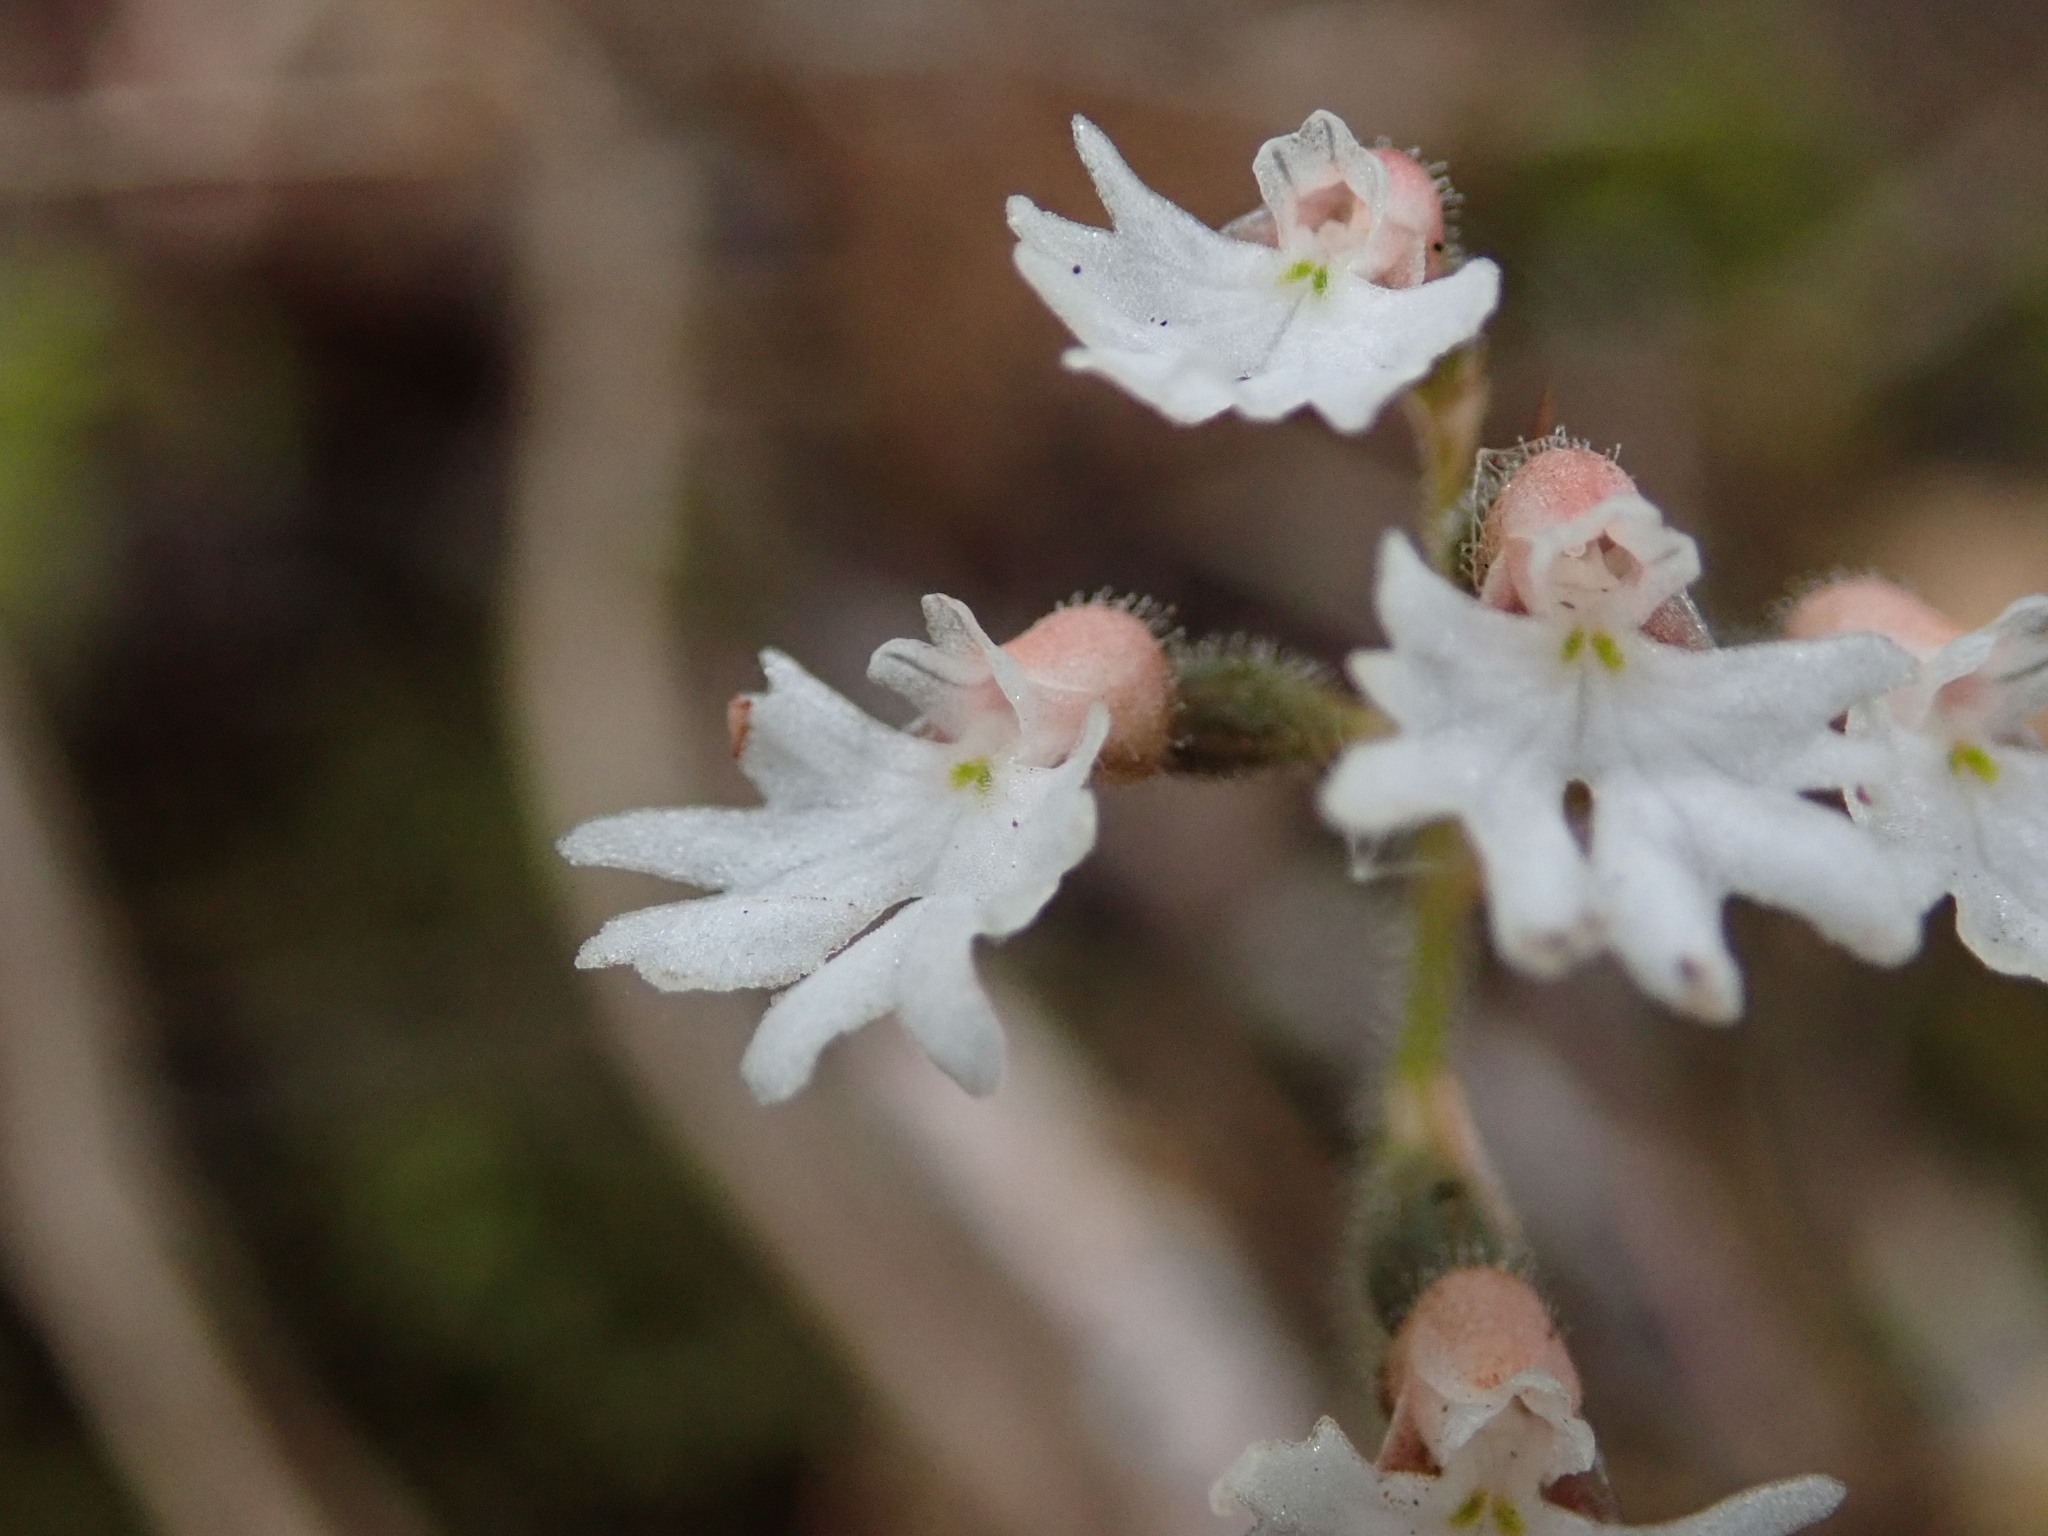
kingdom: Plantae
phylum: Tracheophyta
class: Liliopsida
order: Asparagales
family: Orchidaceae
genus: Cheirostylis
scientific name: Cheirostylis flabellata
